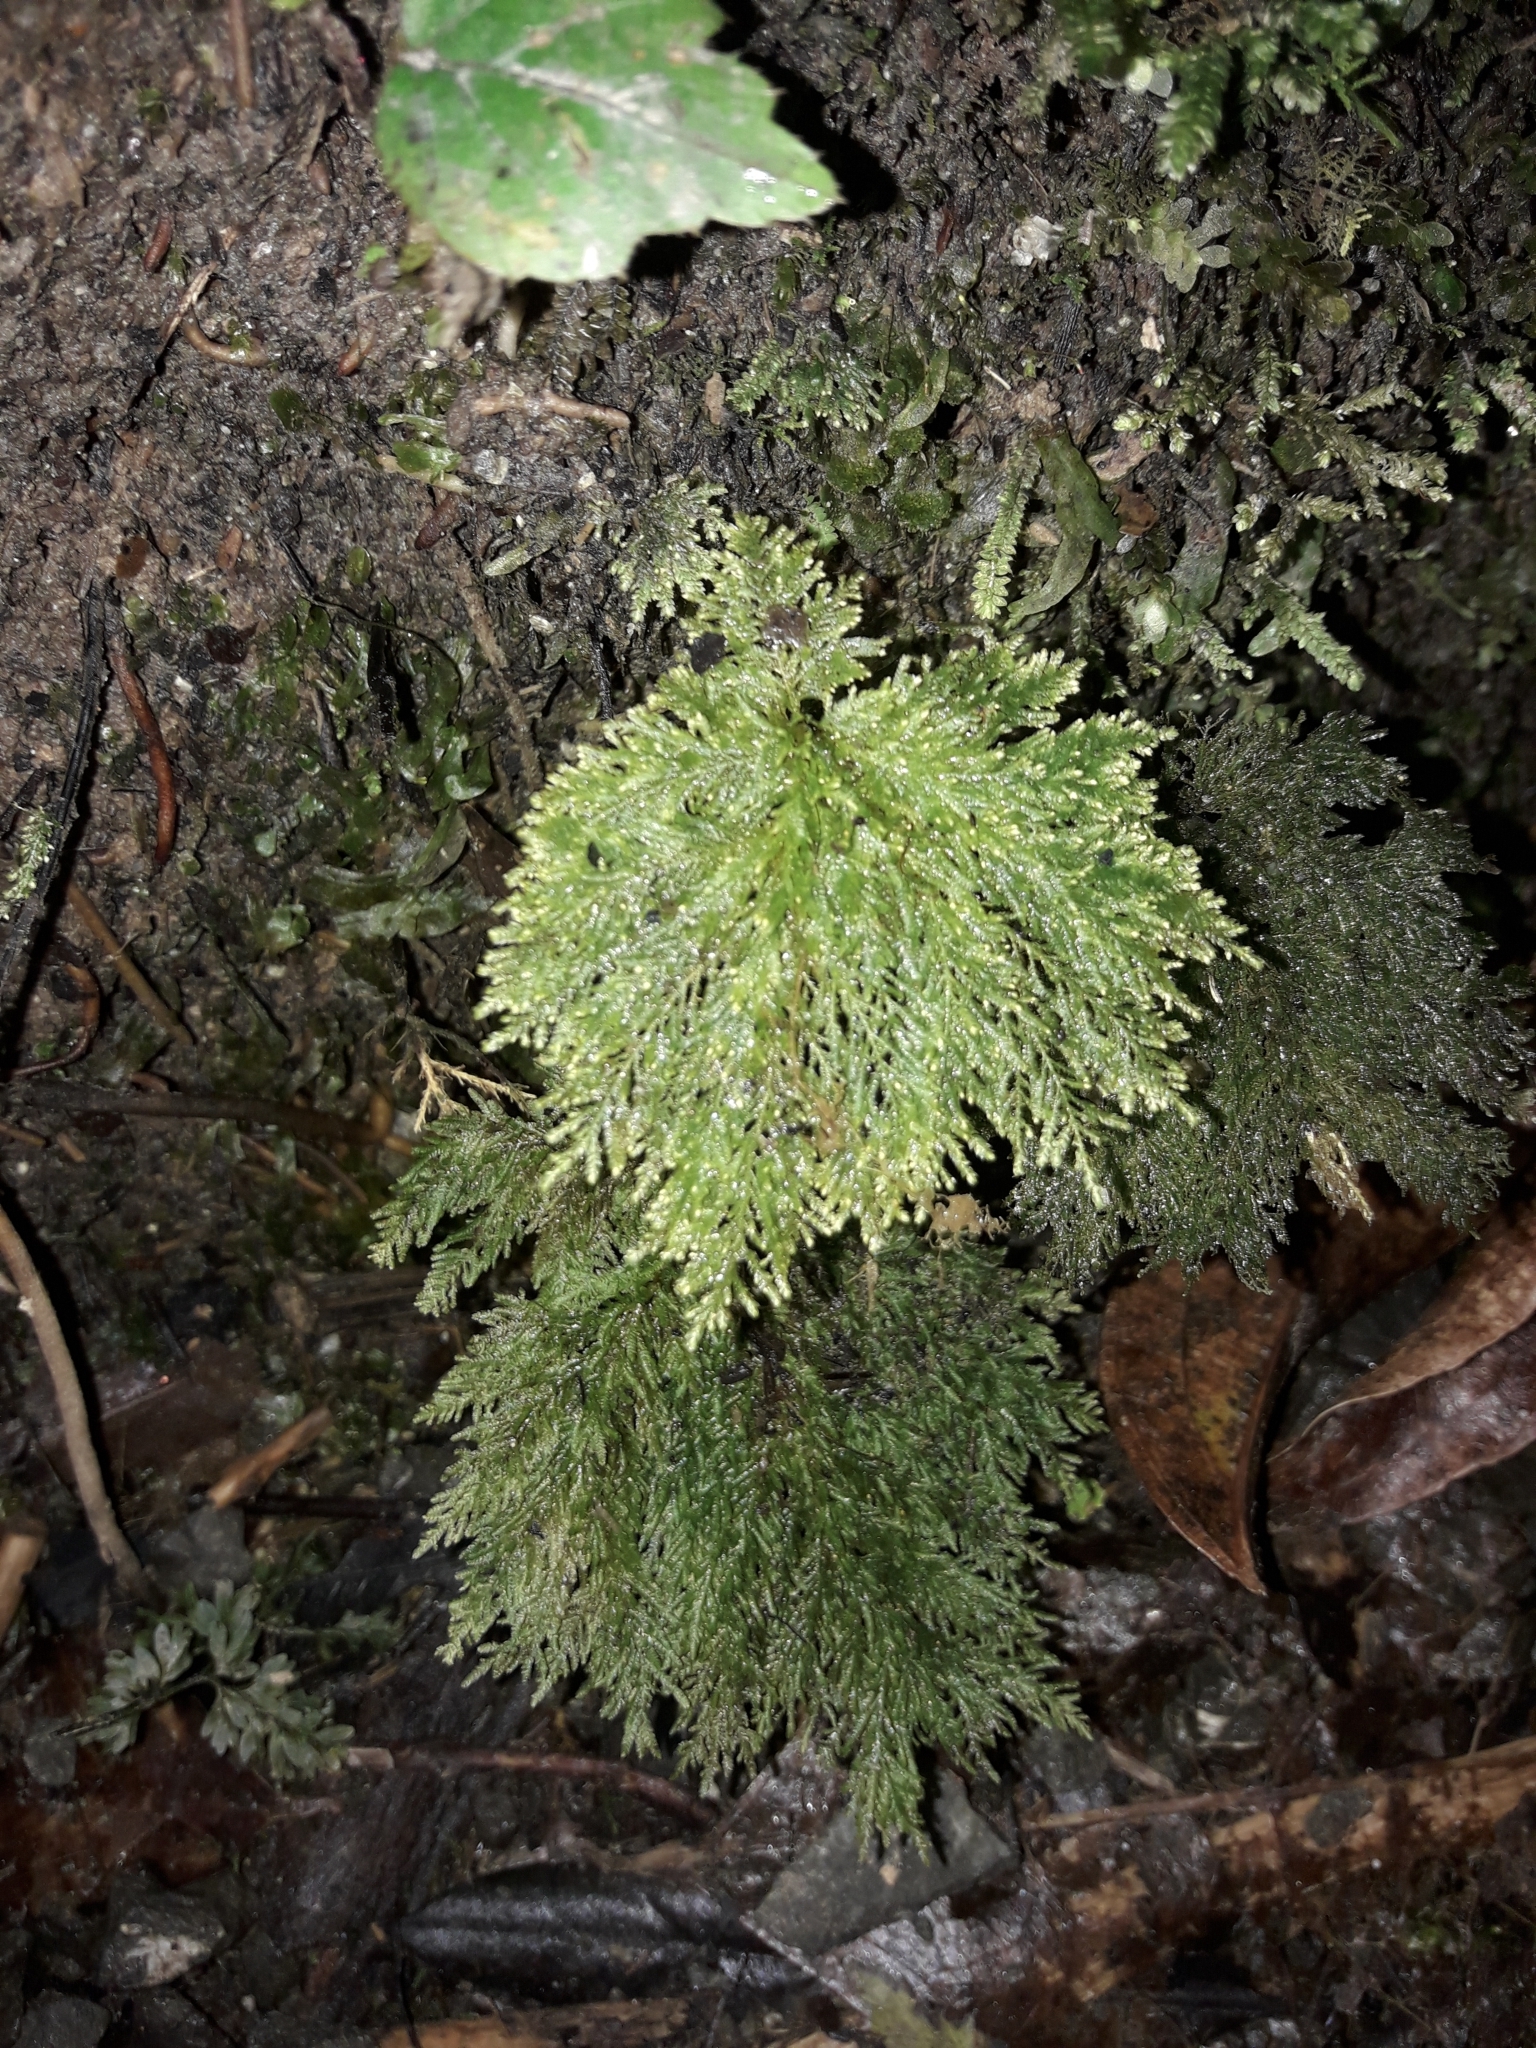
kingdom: Plantae
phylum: Bryophyta
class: Bryopsida
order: Hypopterygiales
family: Hypopterygiaceae
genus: Dendrohypopterygium
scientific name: Dendrohypopterygium filiculiforme
